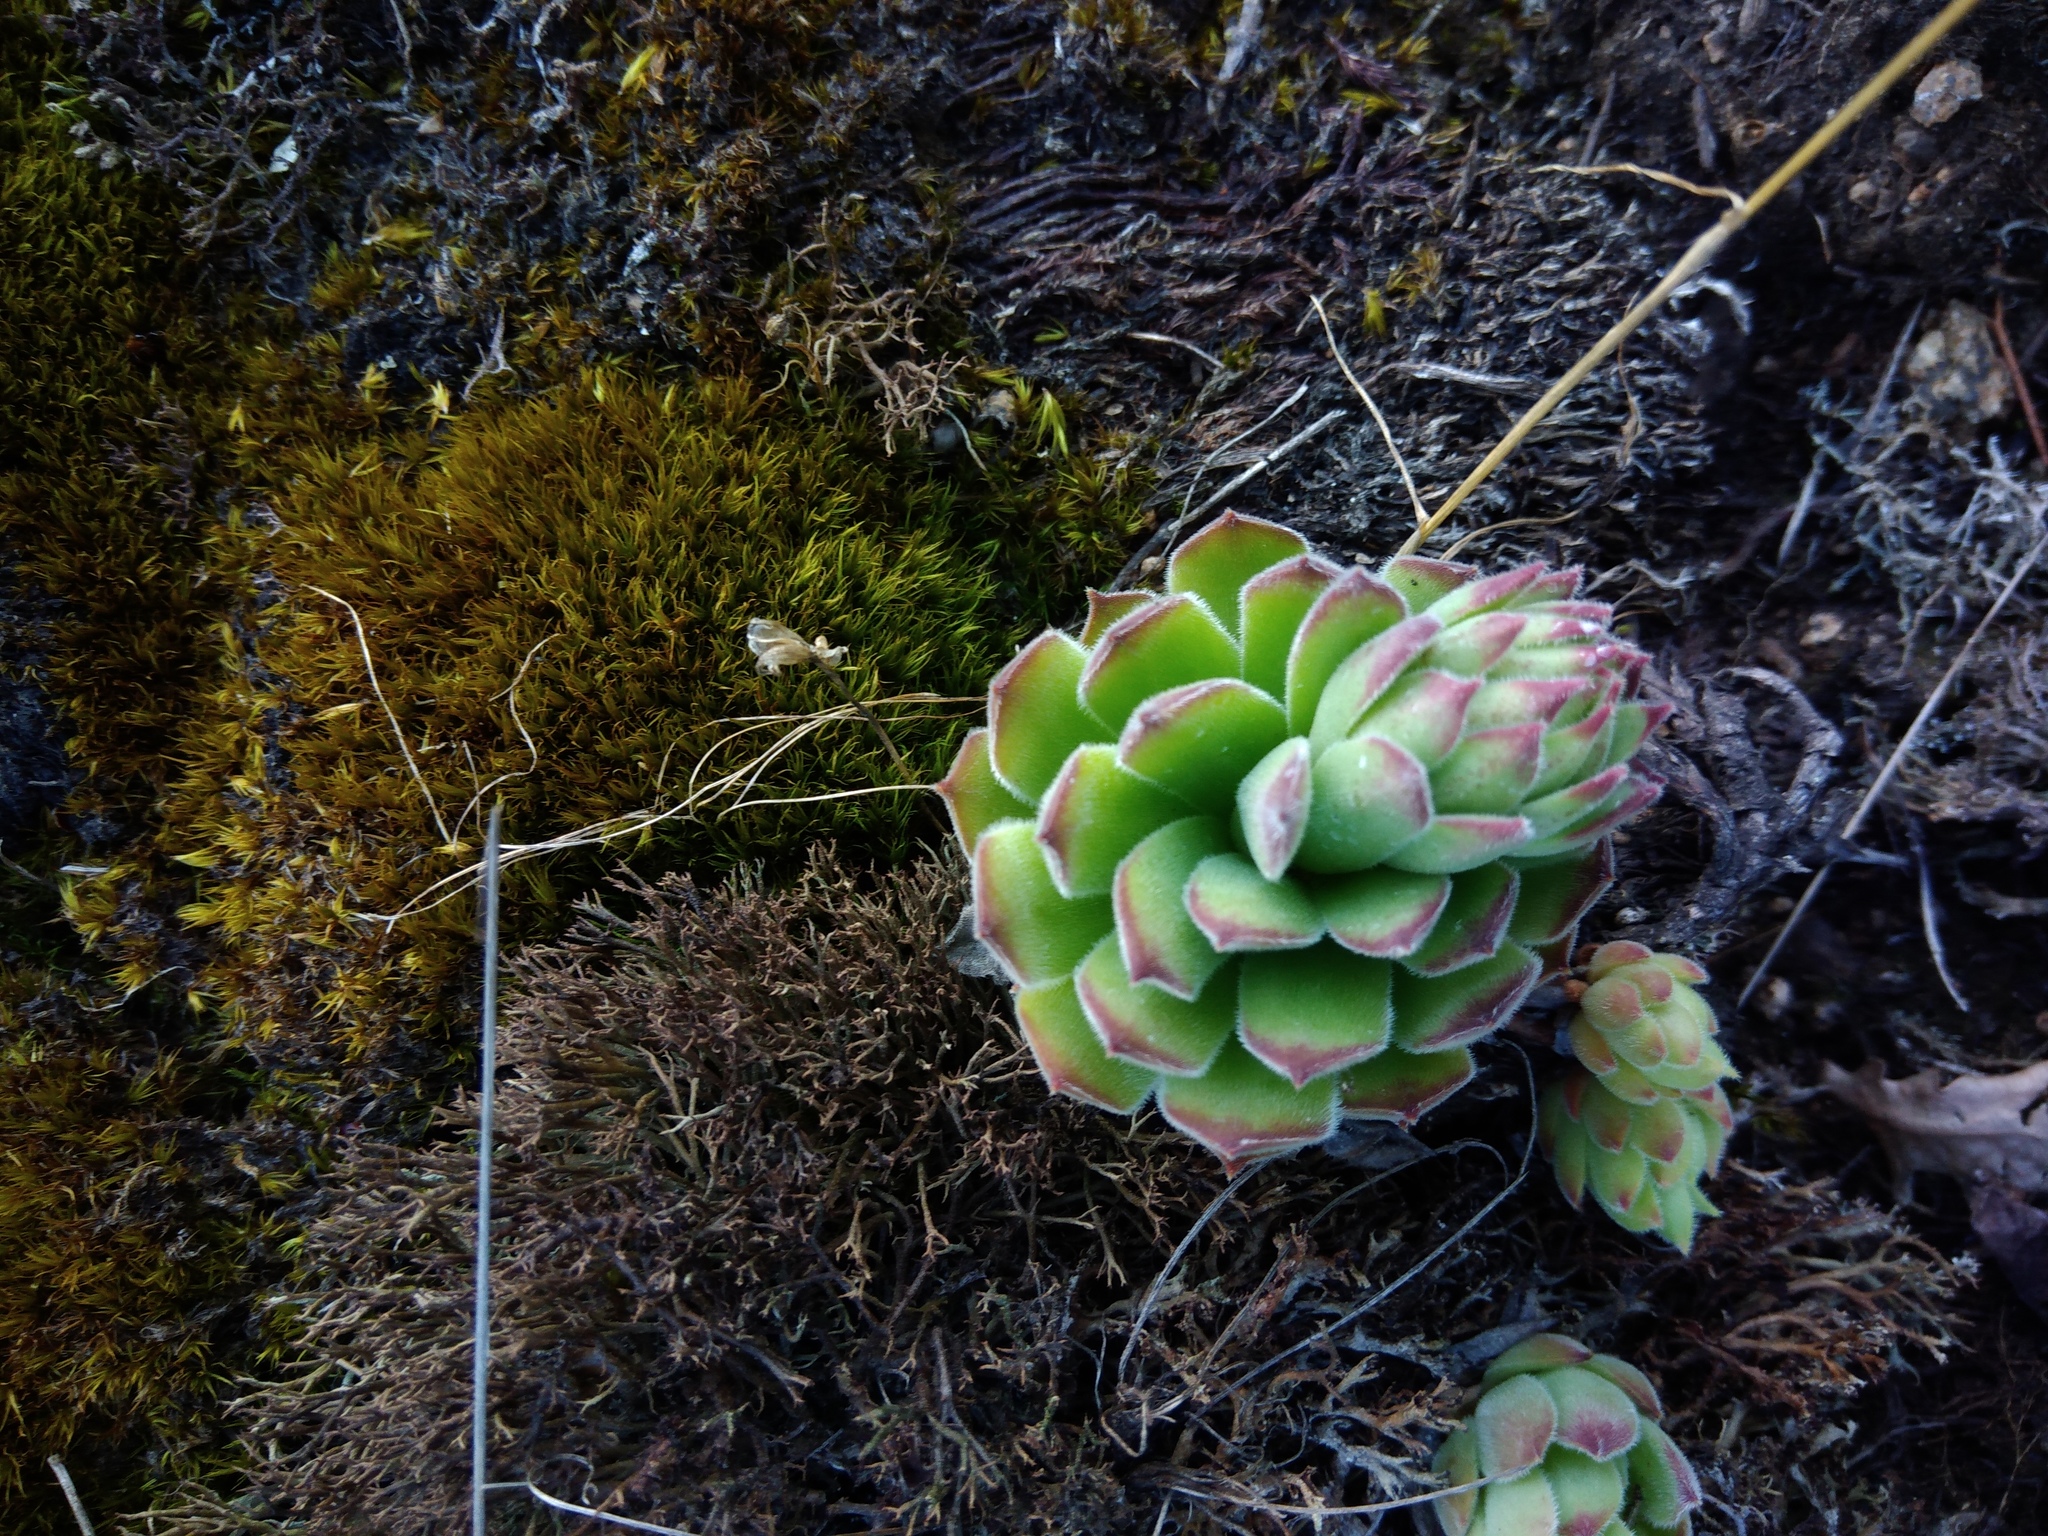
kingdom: Plantae
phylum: Tracheophyta
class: Magnoliopsida
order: Saxifragales
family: Crassulaceae
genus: Sempervivum
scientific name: Sempervivum ruthenicum
